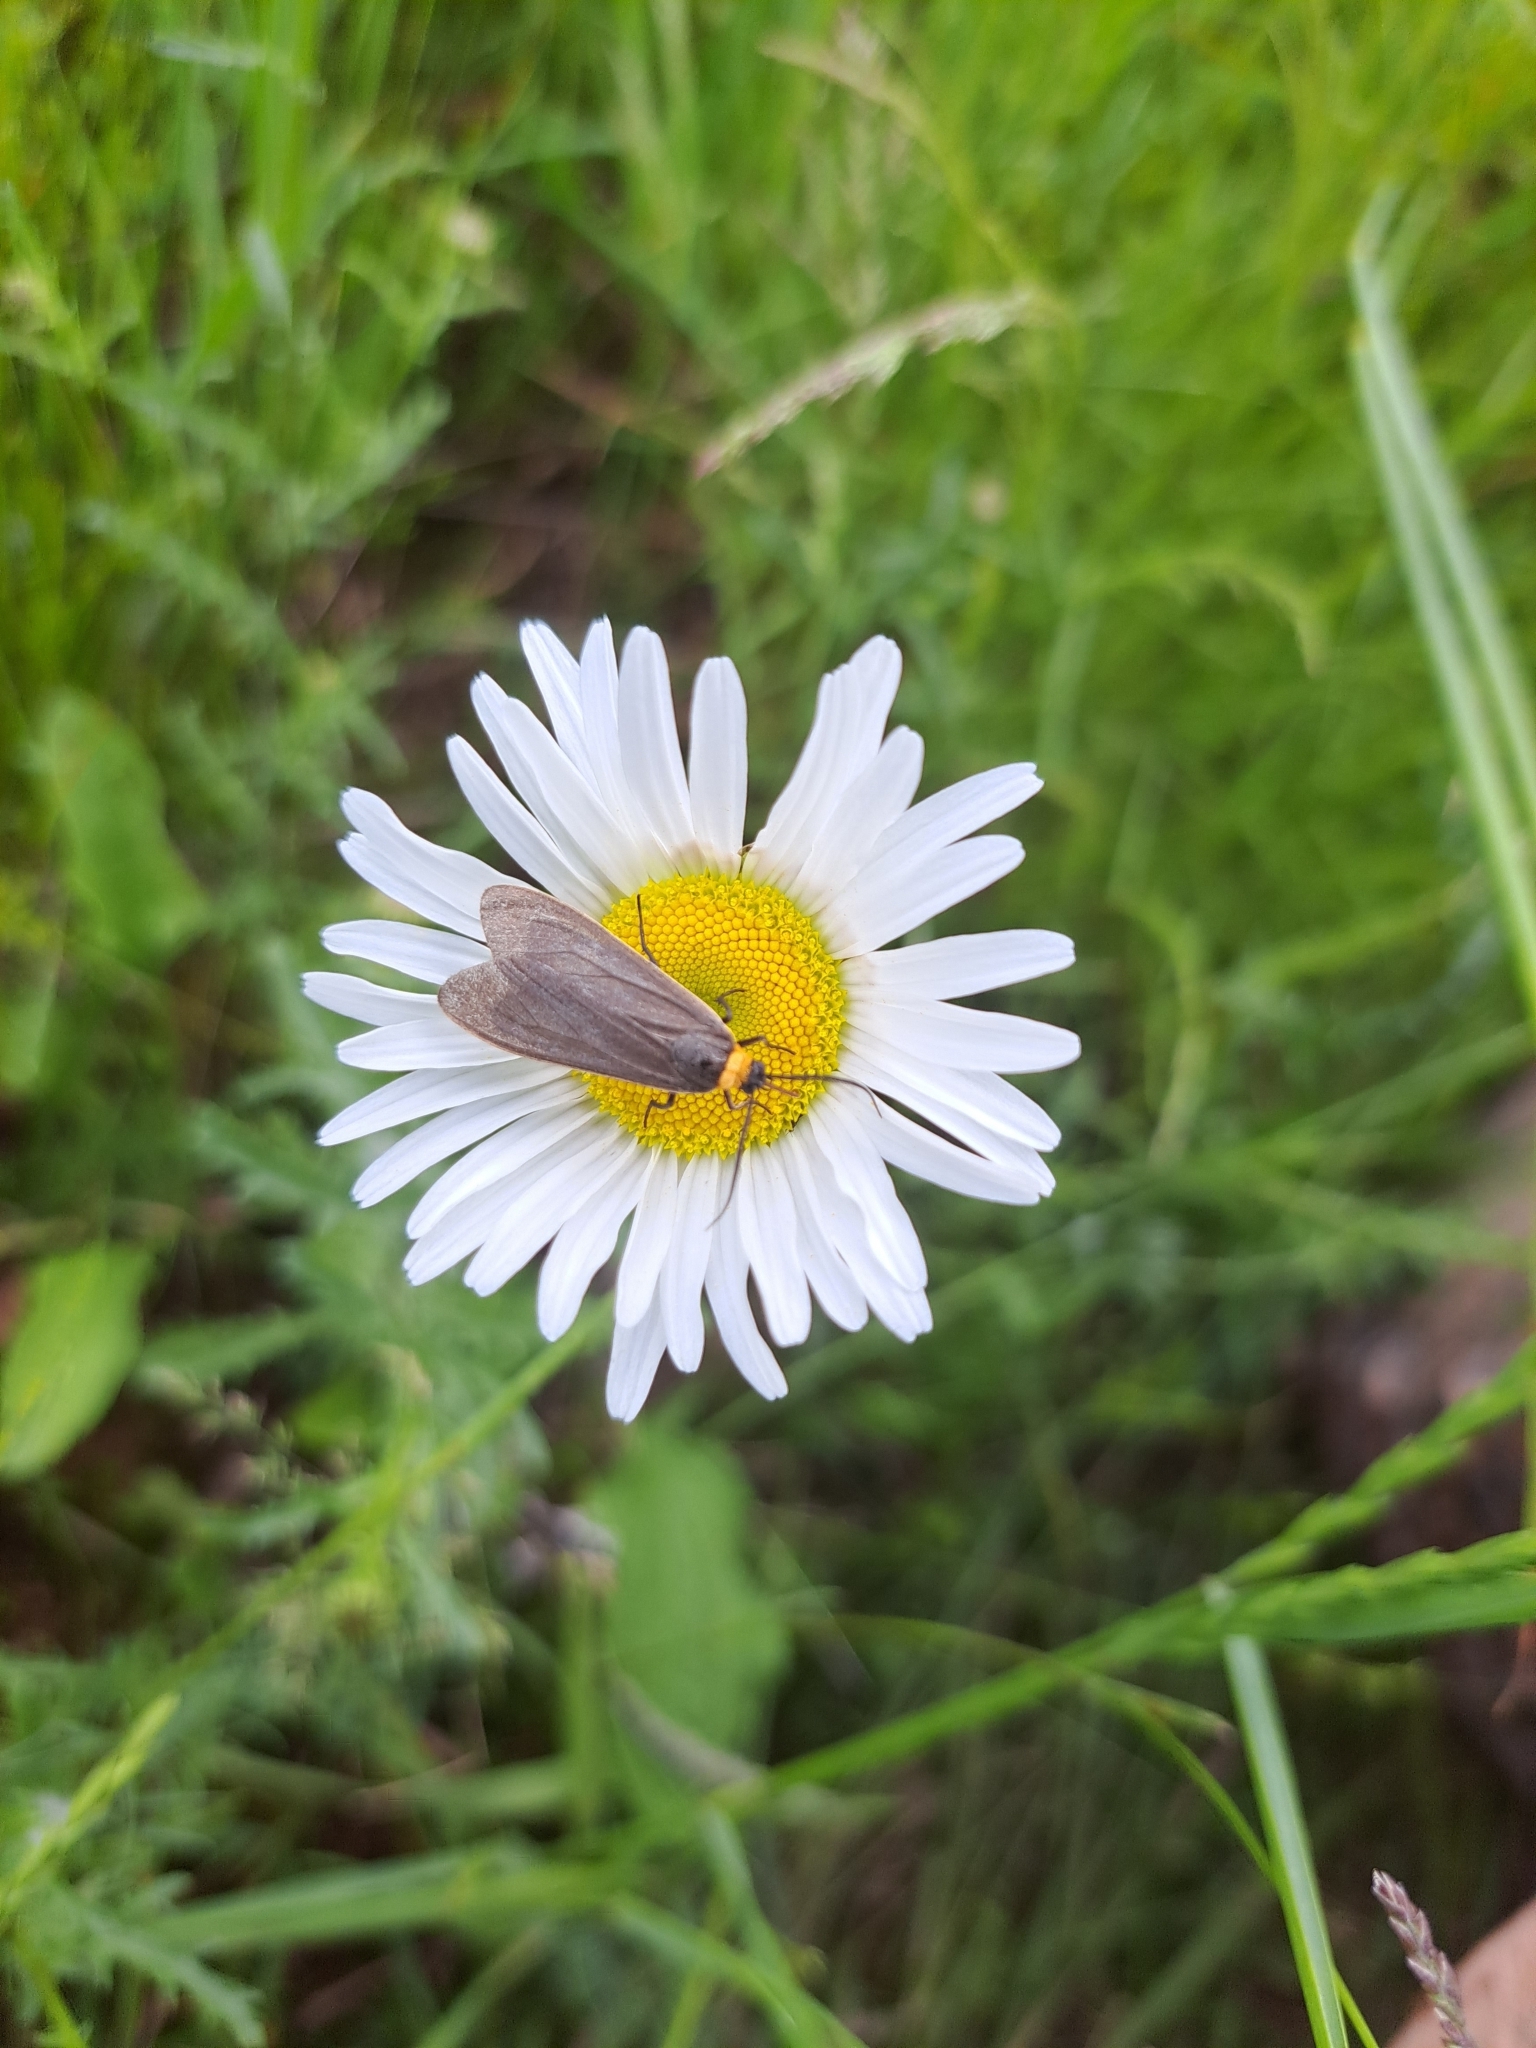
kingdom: Animalia
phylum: Arthropoda
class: Insecta
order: Lepidoptera
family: Erebidae
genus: Cisseps
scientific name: Cisseps fulvicollis
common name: Yellow-collared scape moth
